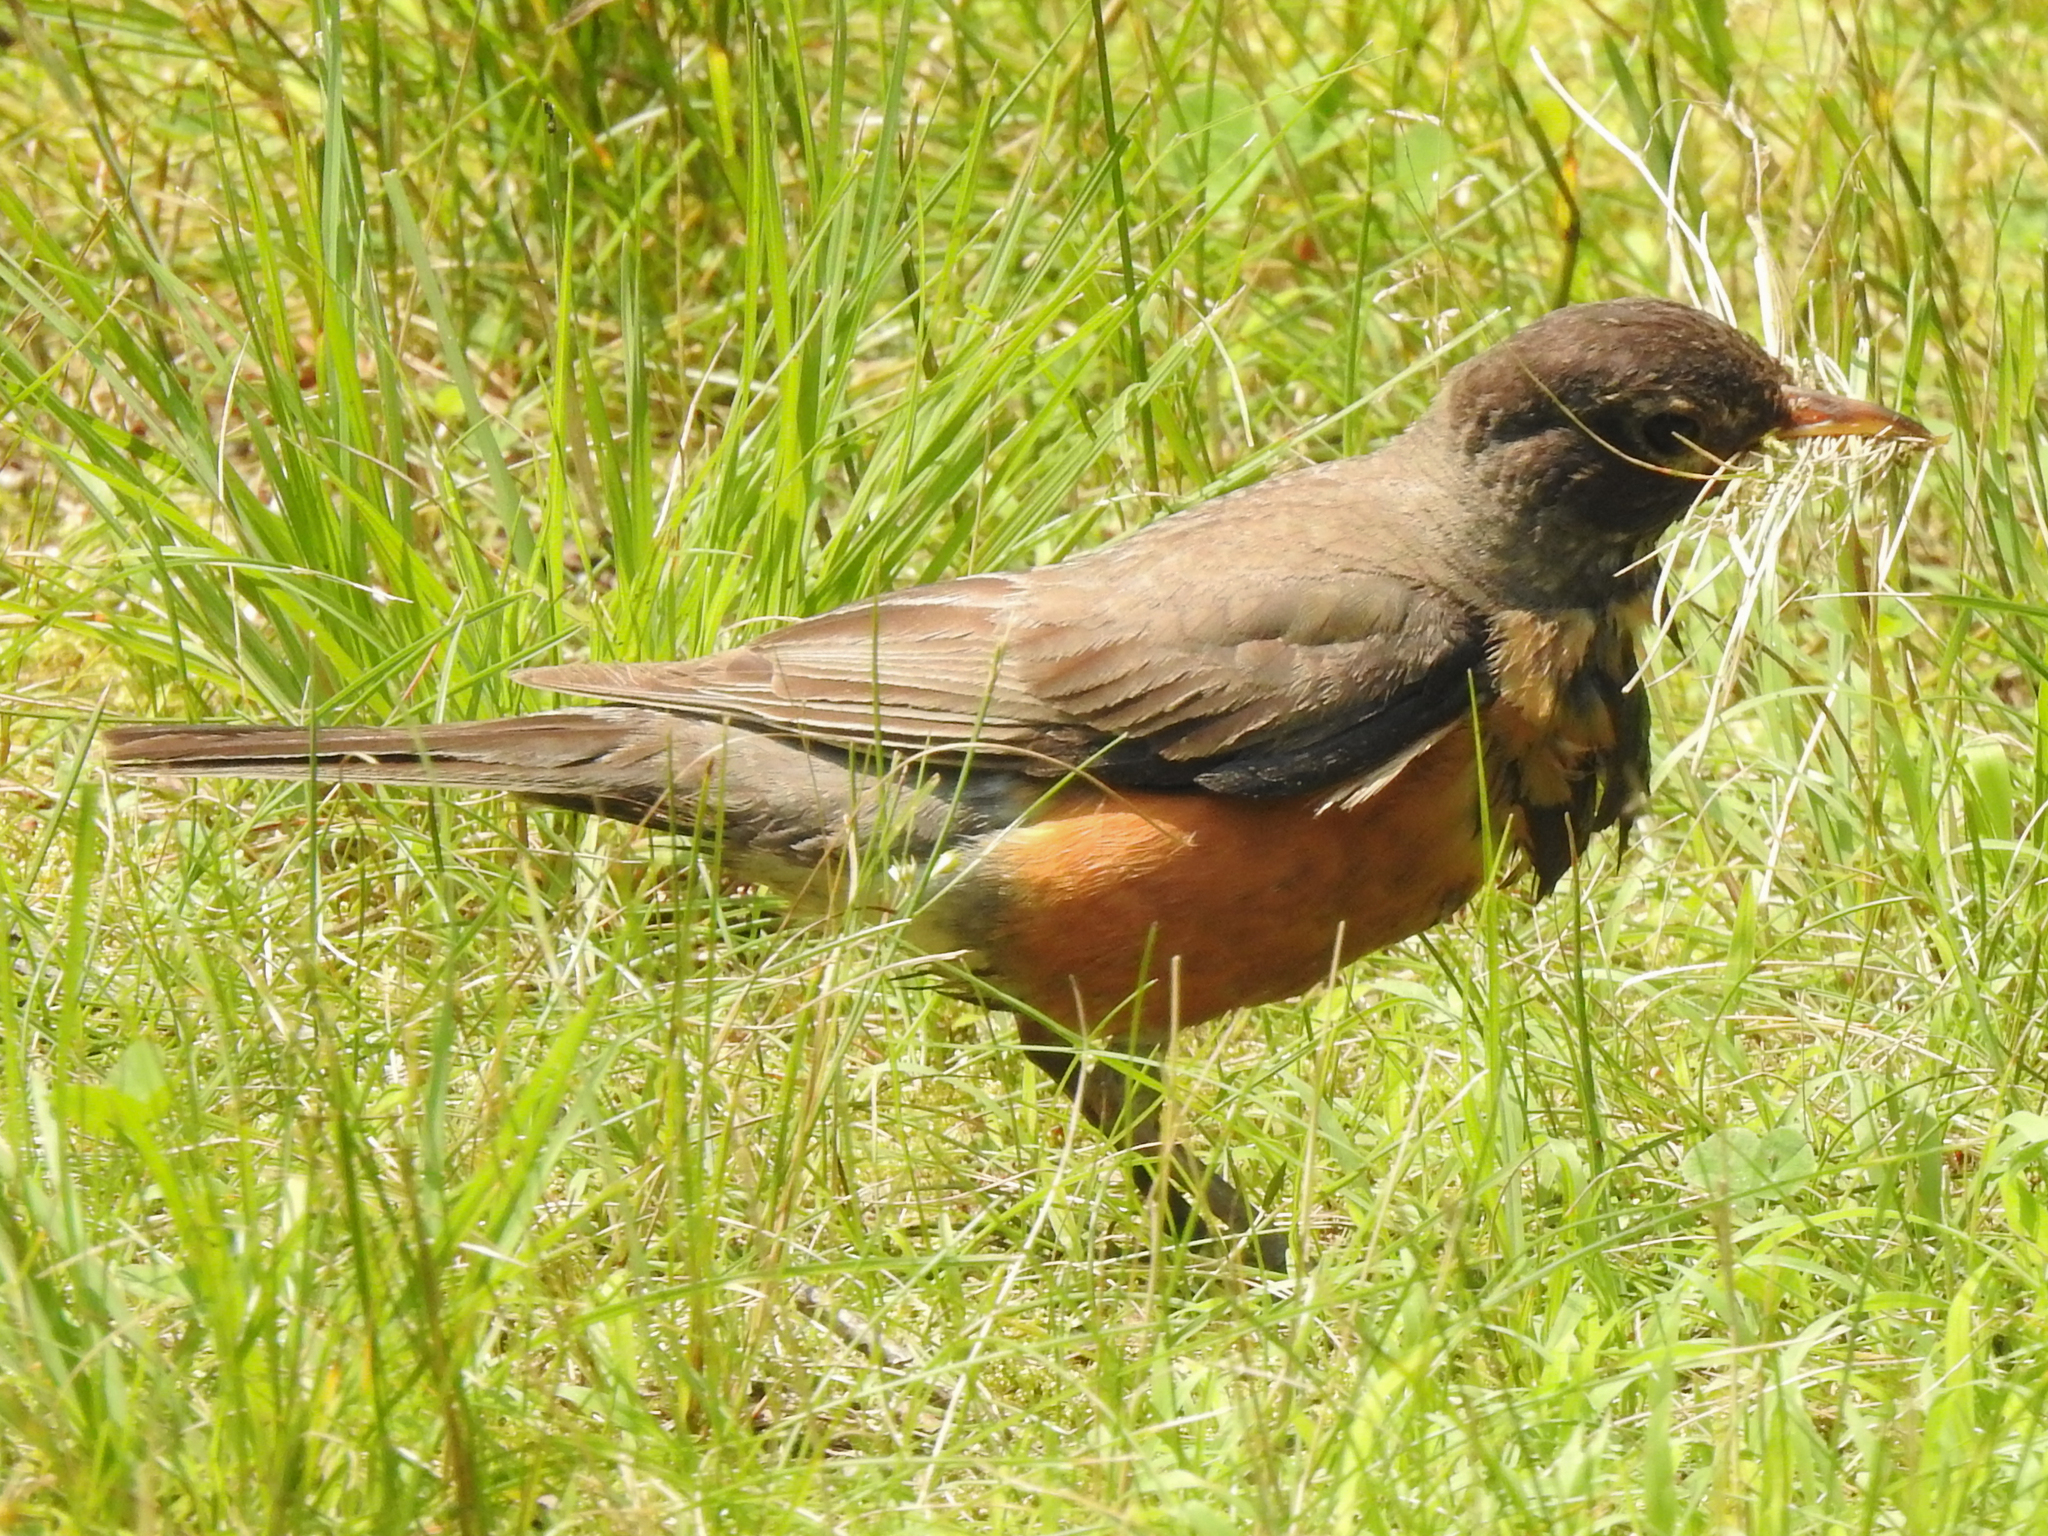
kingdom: Animalia
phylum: Chordata
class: Aves
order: Passeriformes
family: Turdidae
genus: Turdus
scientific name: Turdus migratorius
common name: American robin
